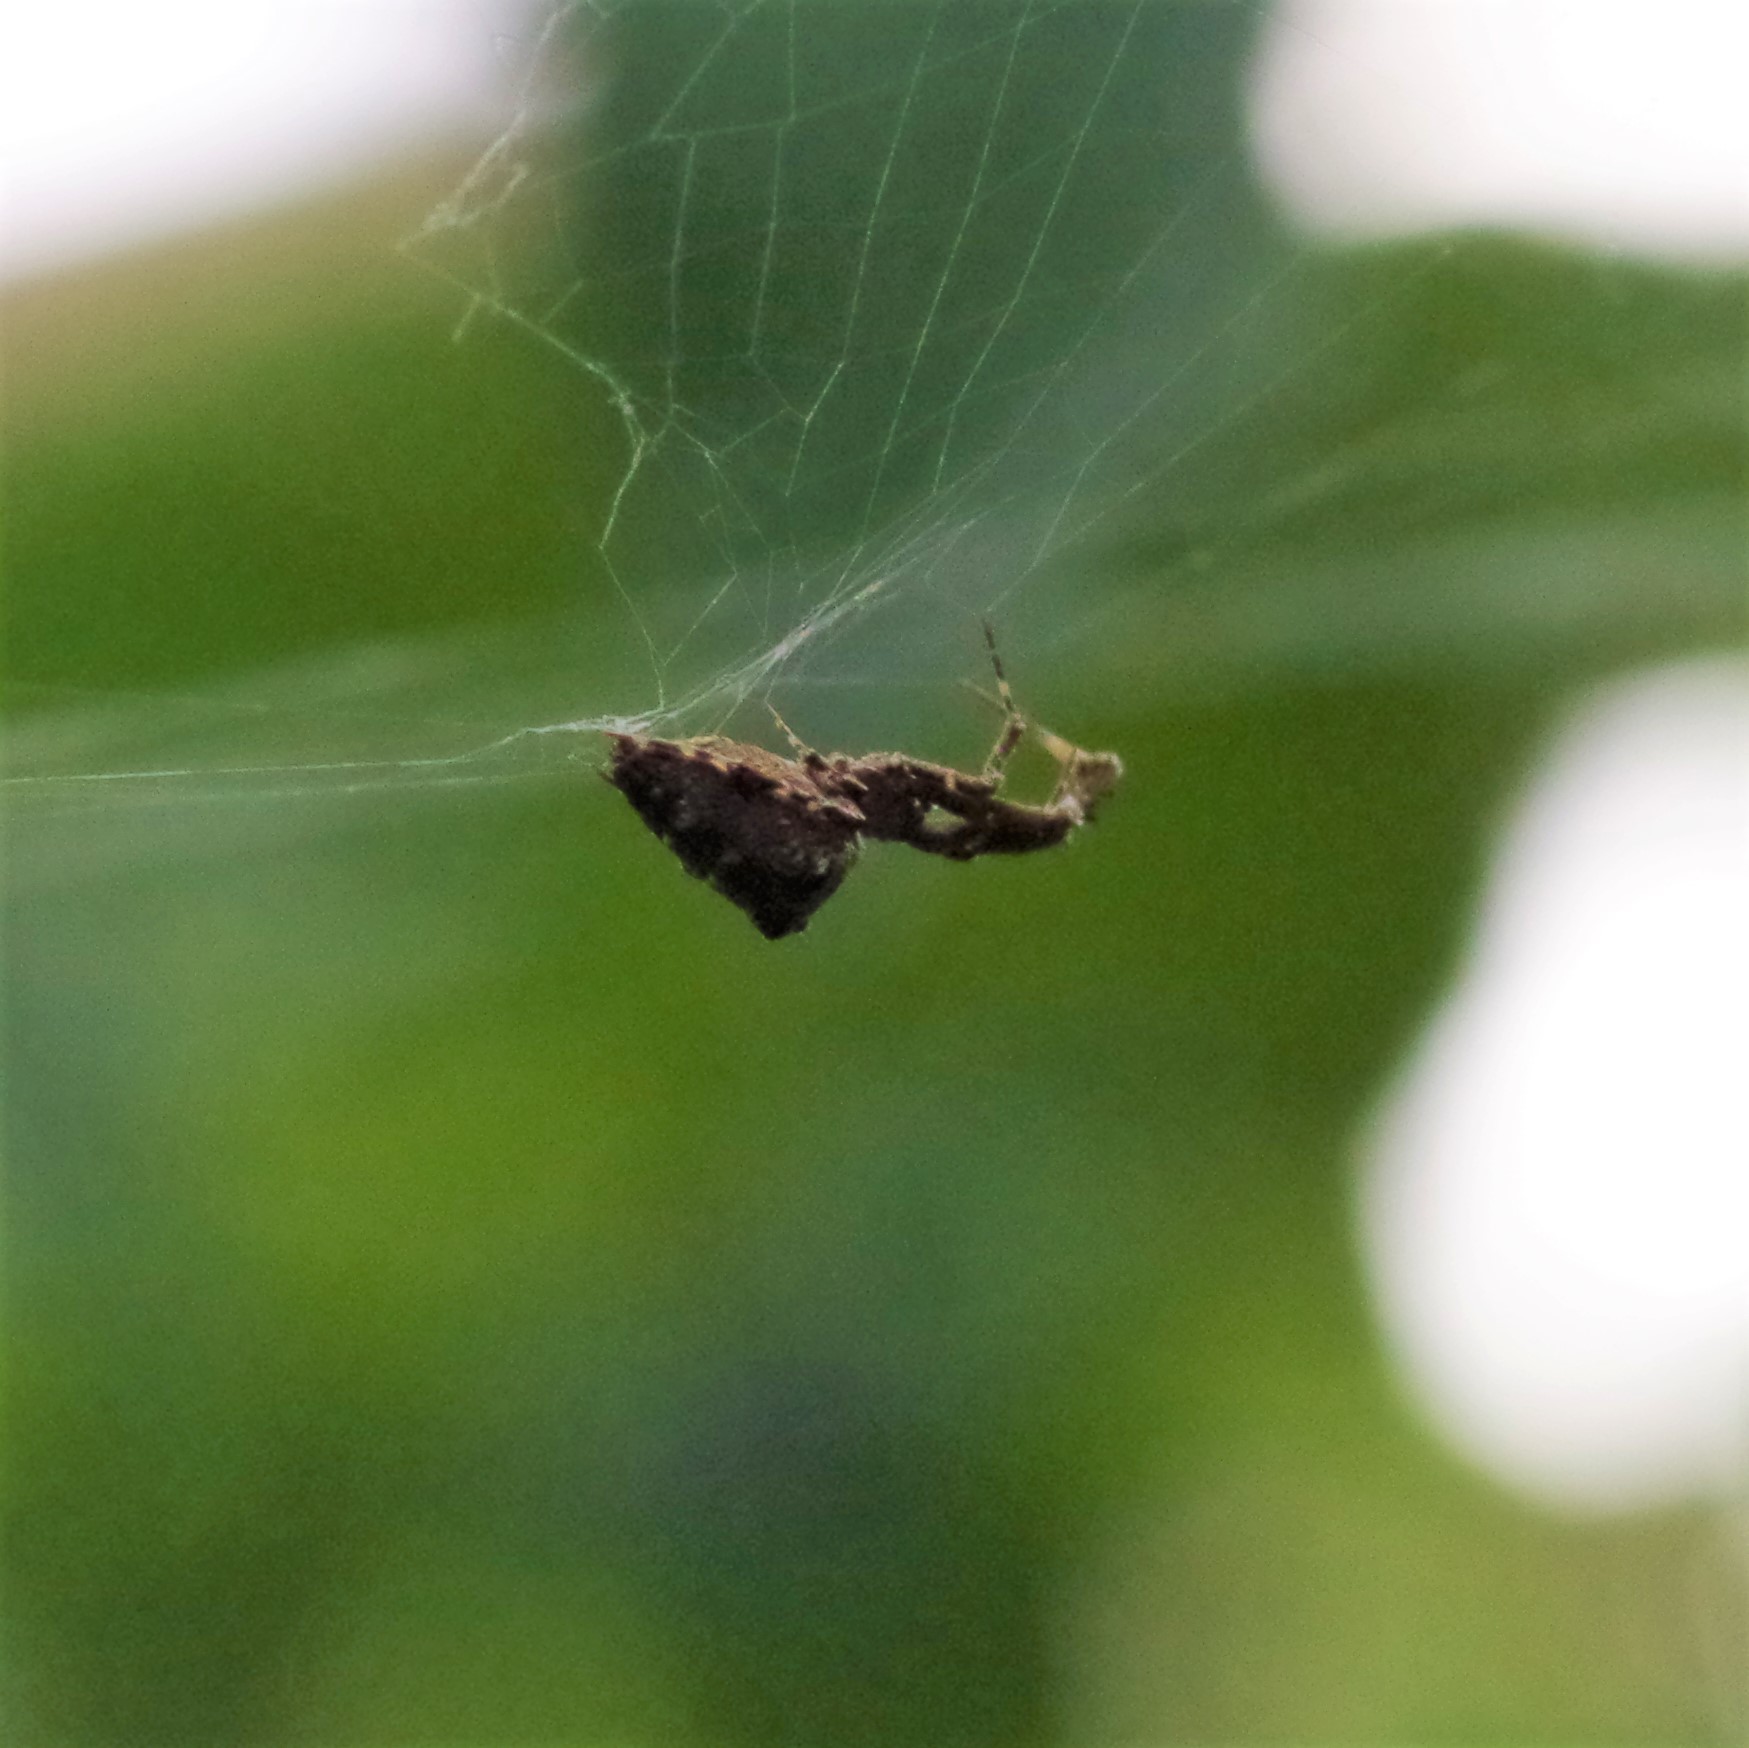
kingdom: Animalia
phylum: Arthropoda
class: Arachnida
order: Araneae
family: Uloboridae
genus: Uloborus
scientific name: Uloborus plumipes
